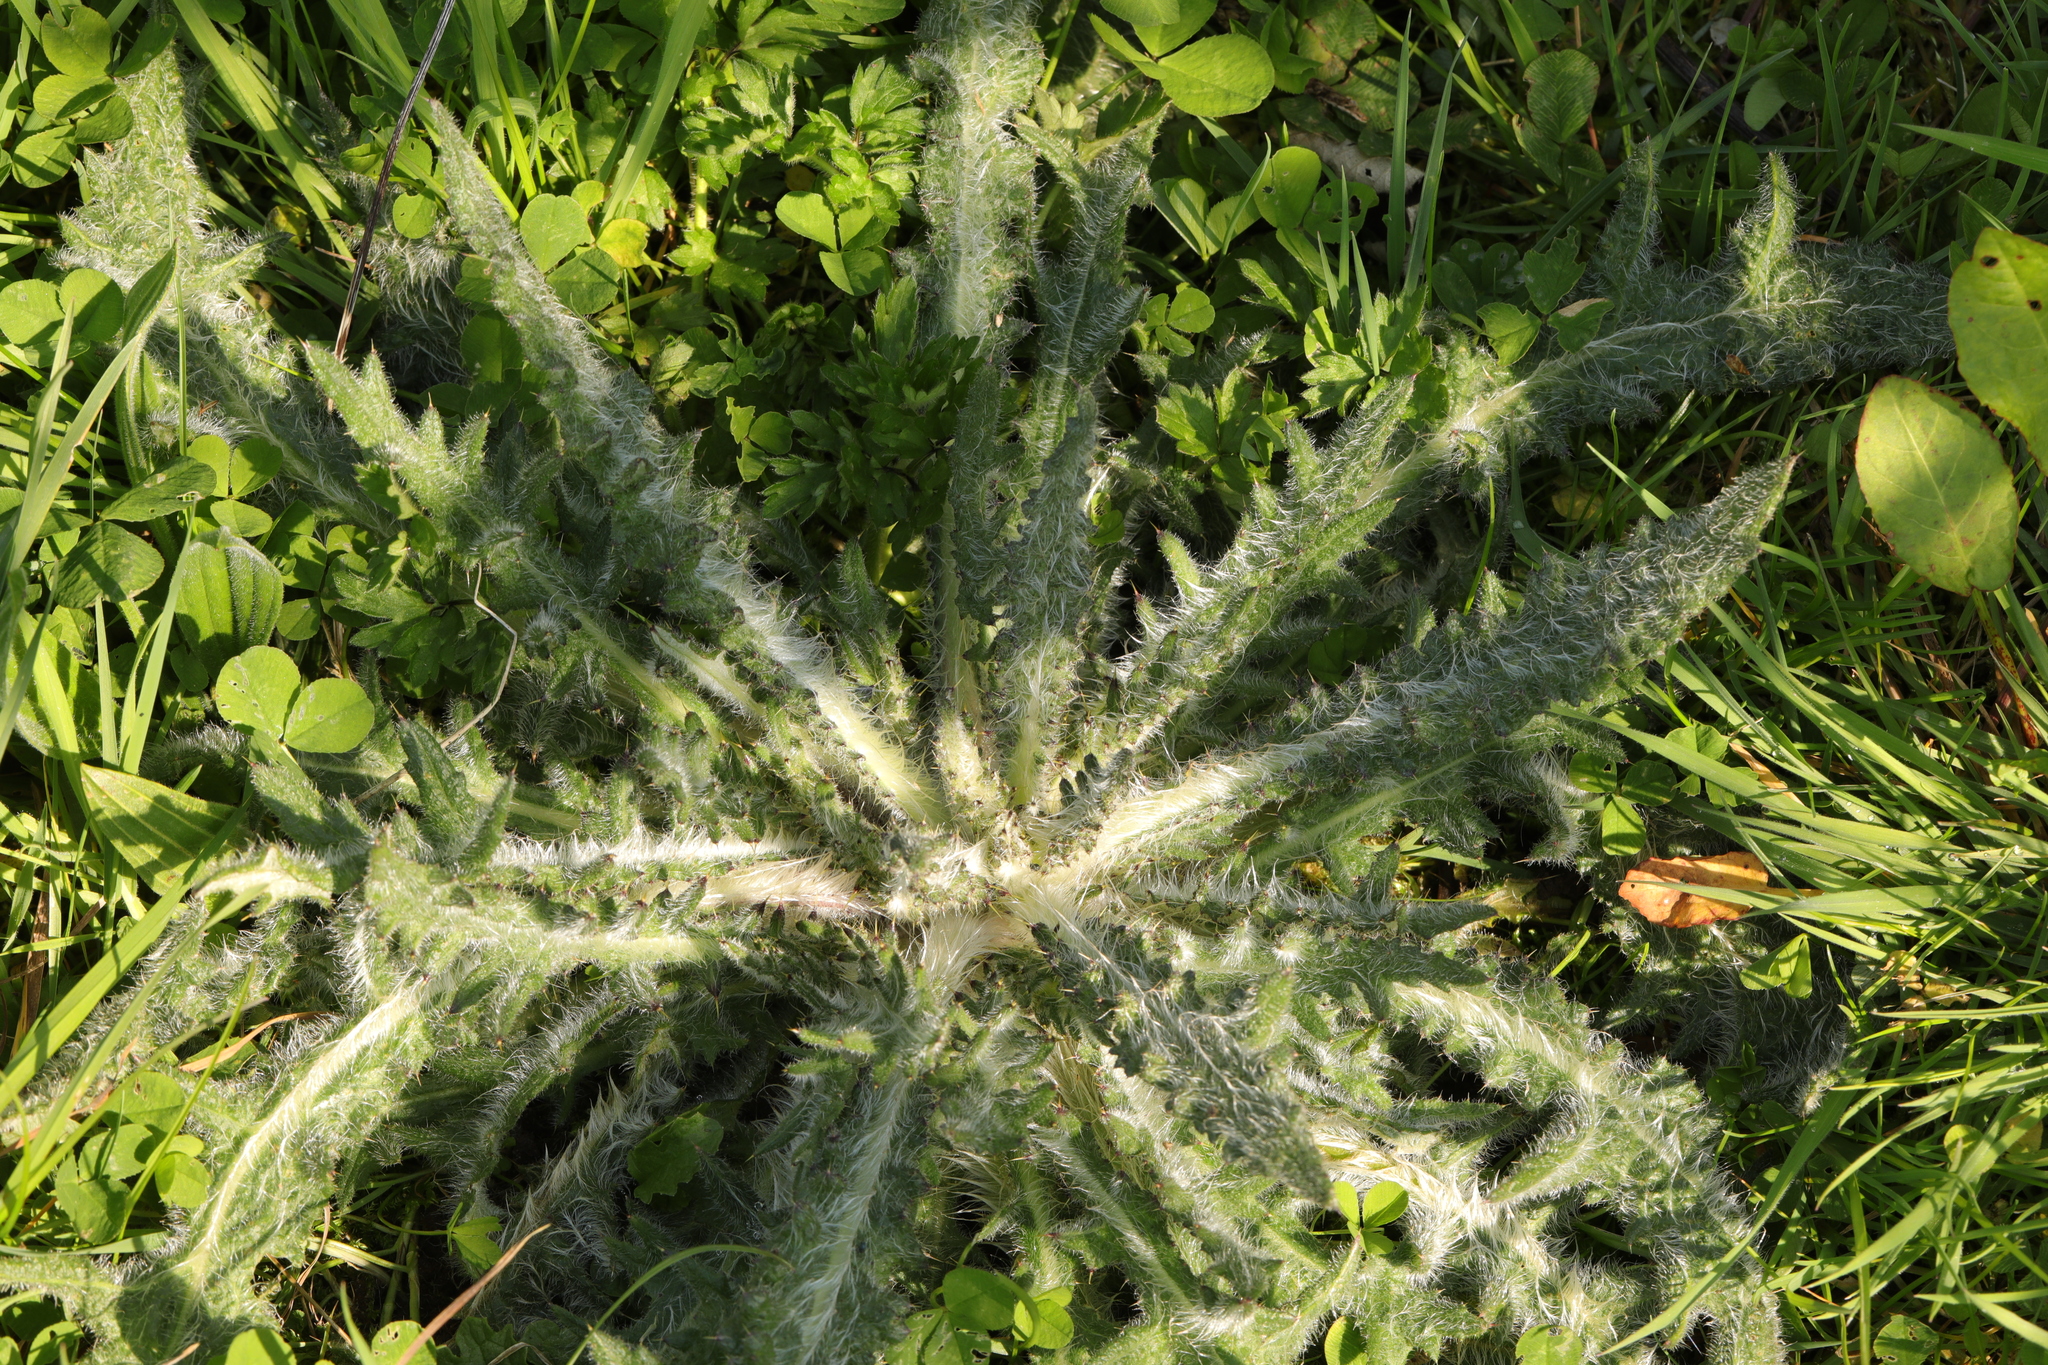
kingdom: Plantae
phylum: Tracheophyta
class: Magnoliopsida
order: Asterales
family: Asteraceae
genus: Cirsium
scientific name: Cirsium vulgare
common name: Bull thistle
